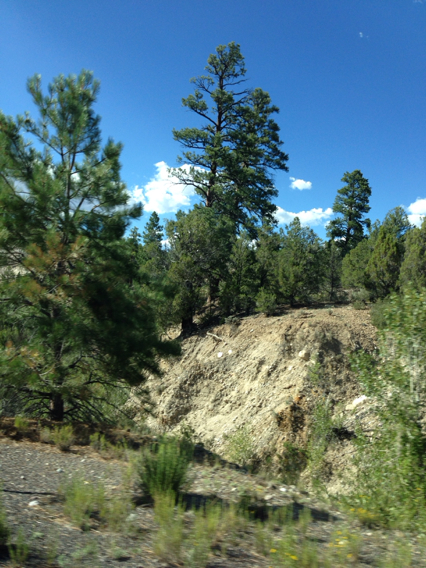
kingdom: Plantae
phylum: Tracheophyta
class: Pinopsida
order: Pinales
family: Pinaceae
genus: Pinus
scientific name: Pinus ponderosa
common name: Western yellow-pine
